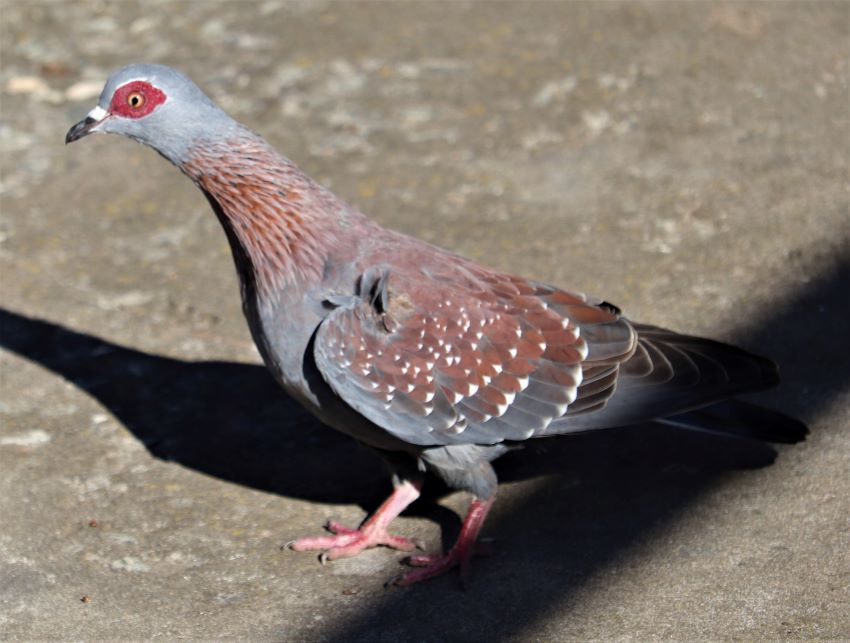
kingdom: Animalia
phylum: Chordata
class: Aves
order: Columbiformes
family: Columbidae
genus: Columba
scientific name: Columba guinea
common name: Speckled pigeon
